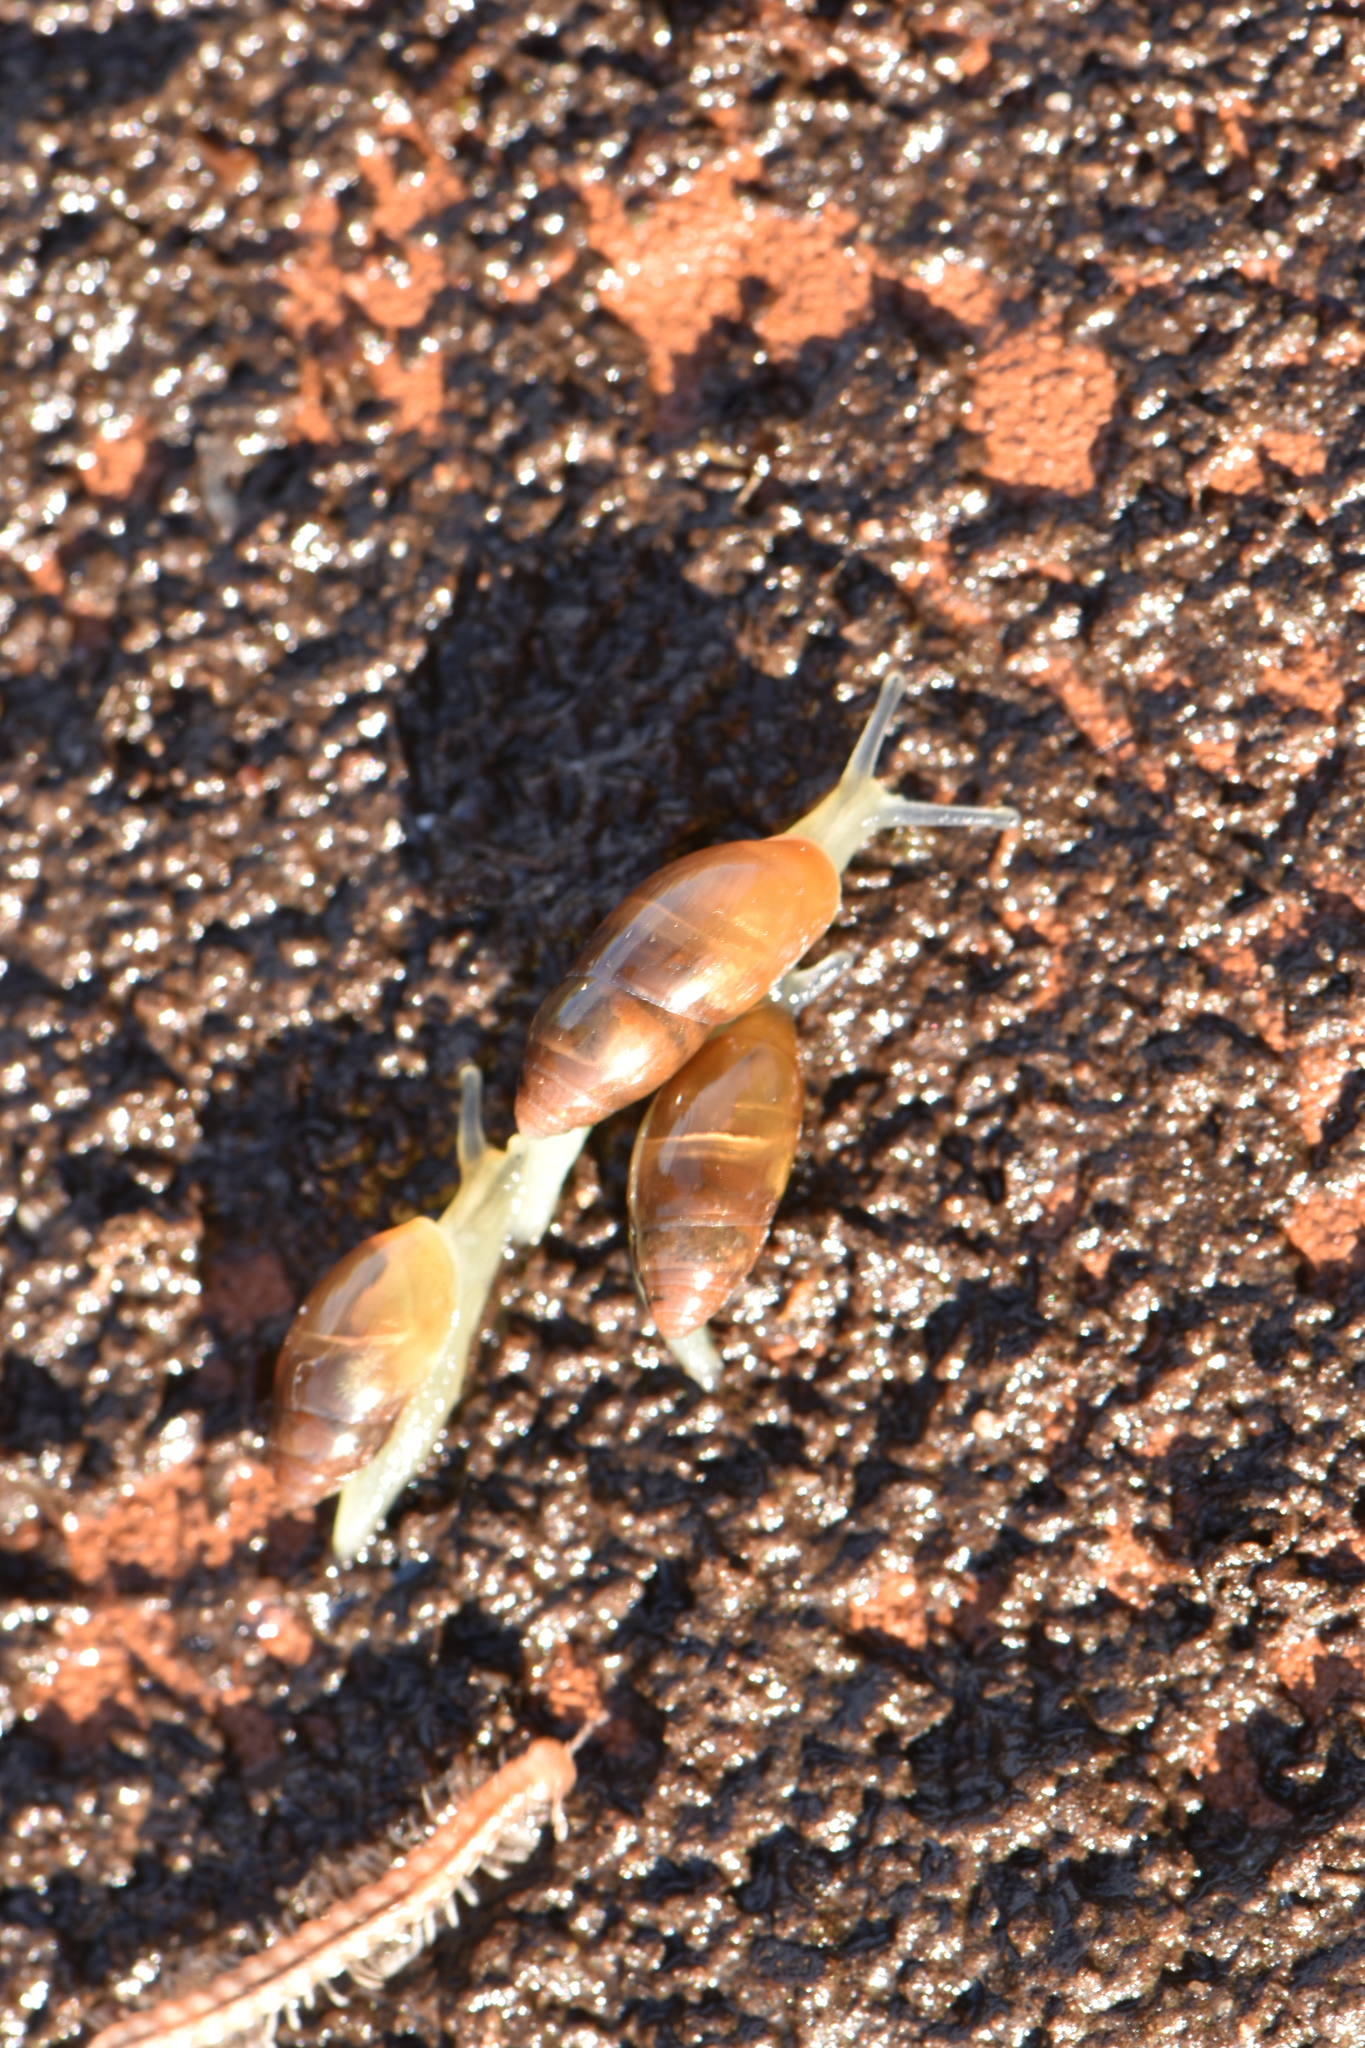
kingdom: Animalia
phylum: Mollusca
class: Gastropoda
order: Stylommatophora
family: Ferussaciidae
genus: Ferussacia
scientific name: Ferussacia folliculum
